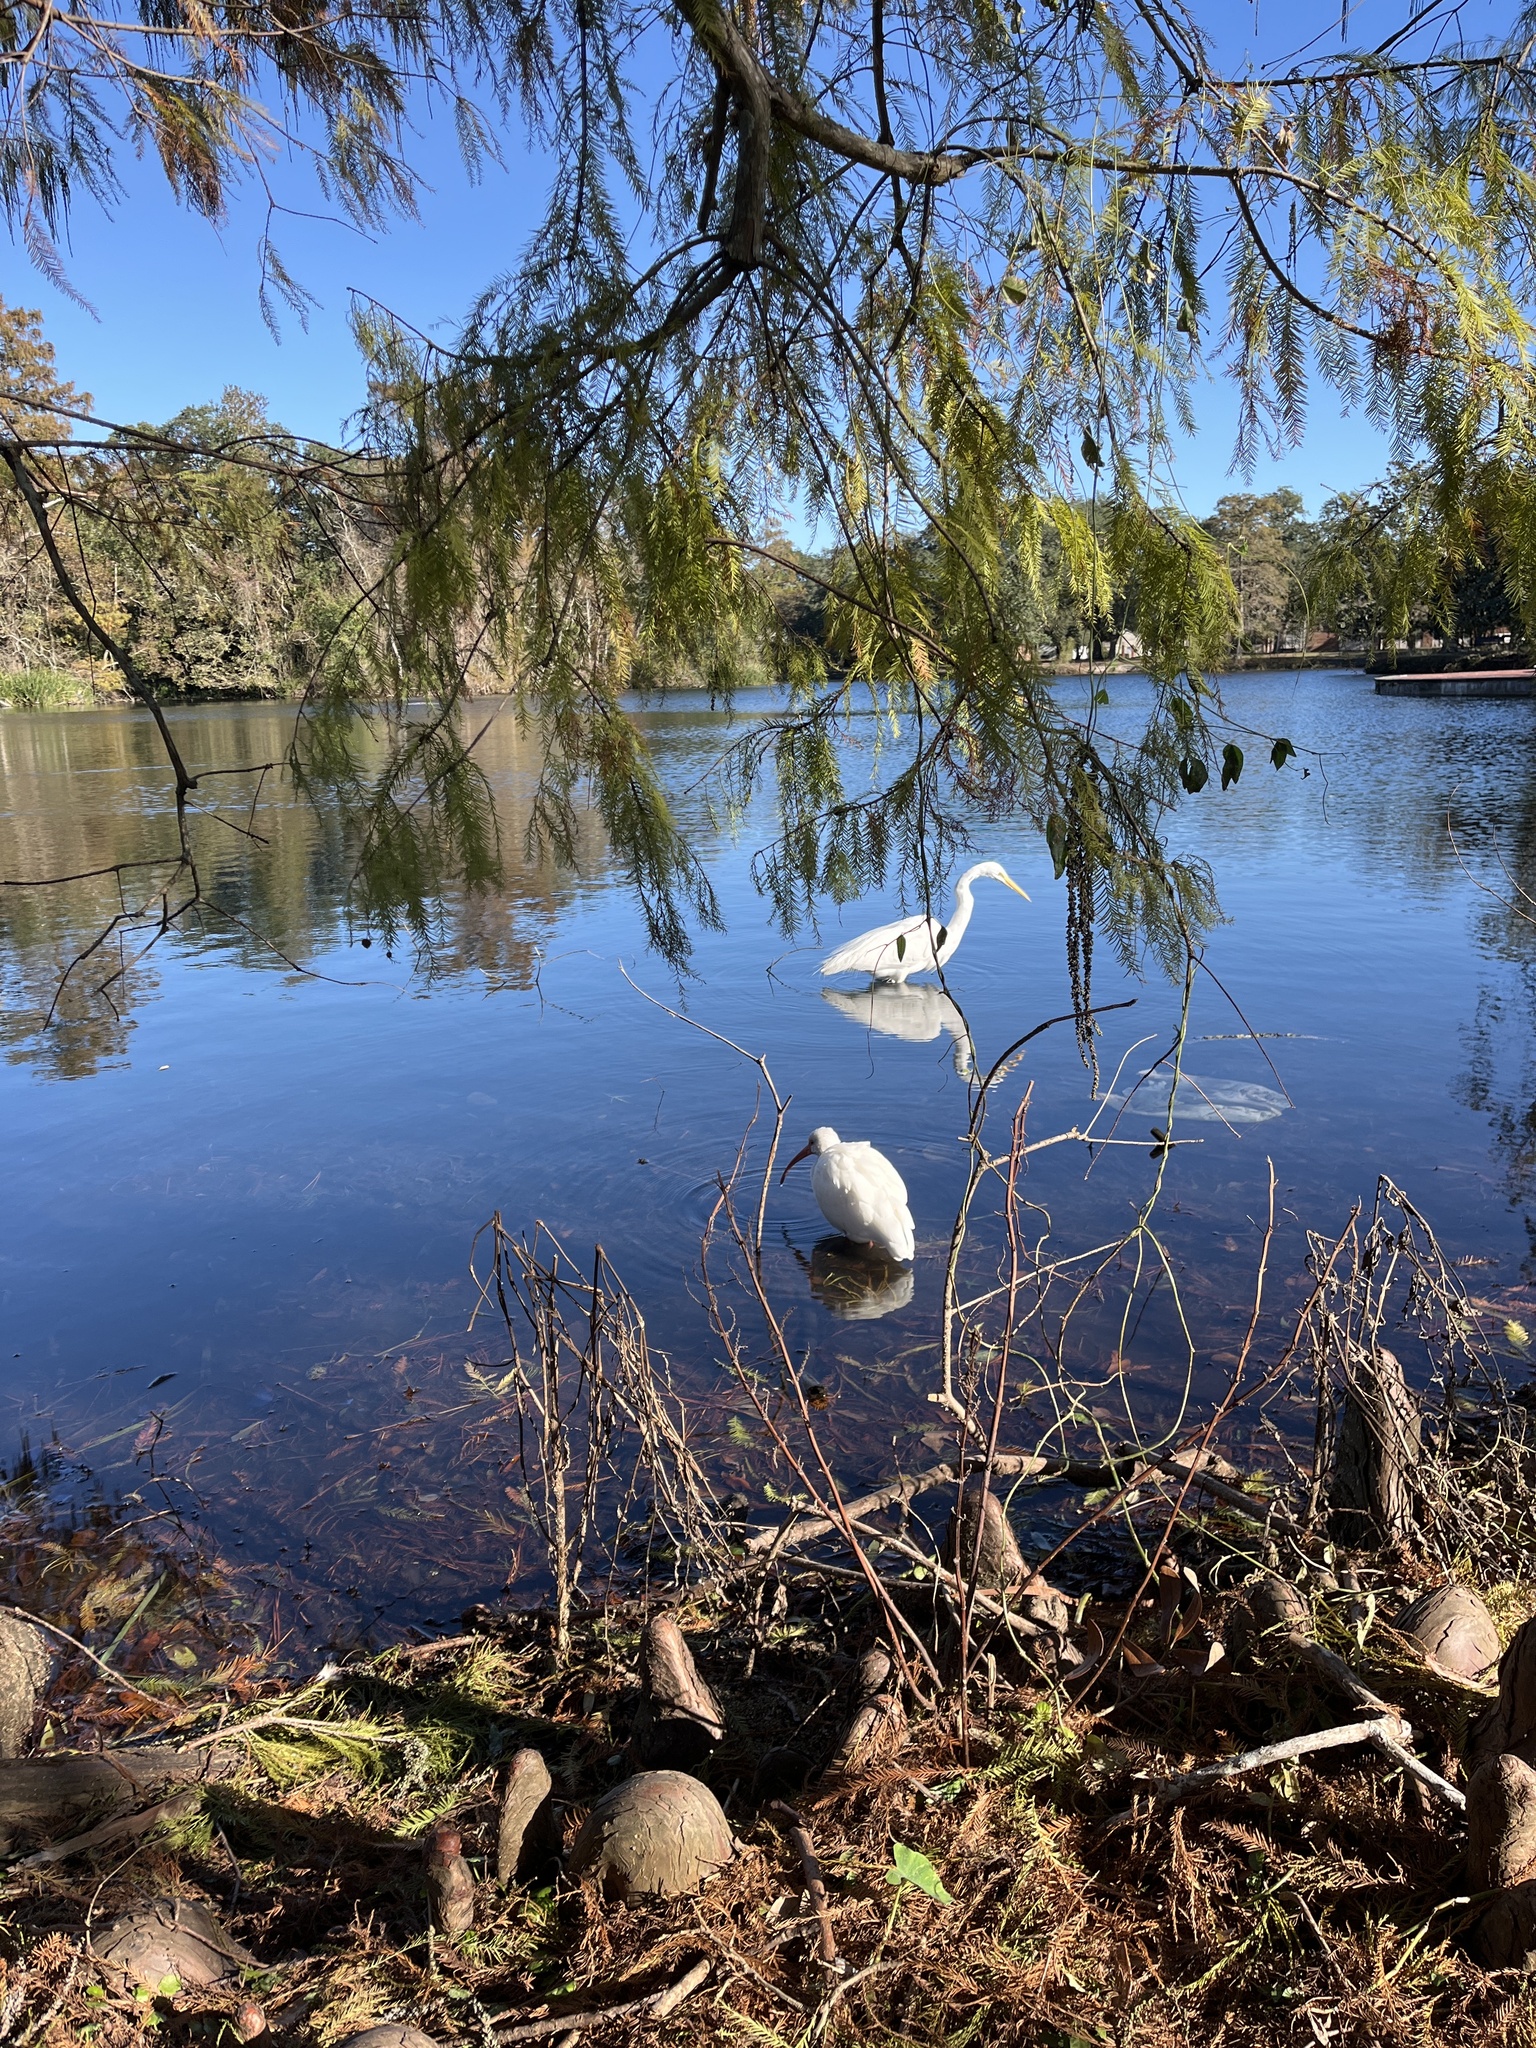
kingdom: Animalia
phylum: Chordata
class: Aves
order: Pelecaniformes
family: Threskiornithidae
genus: Eudocimus
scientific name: Eudocimus albus
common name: White ibis
